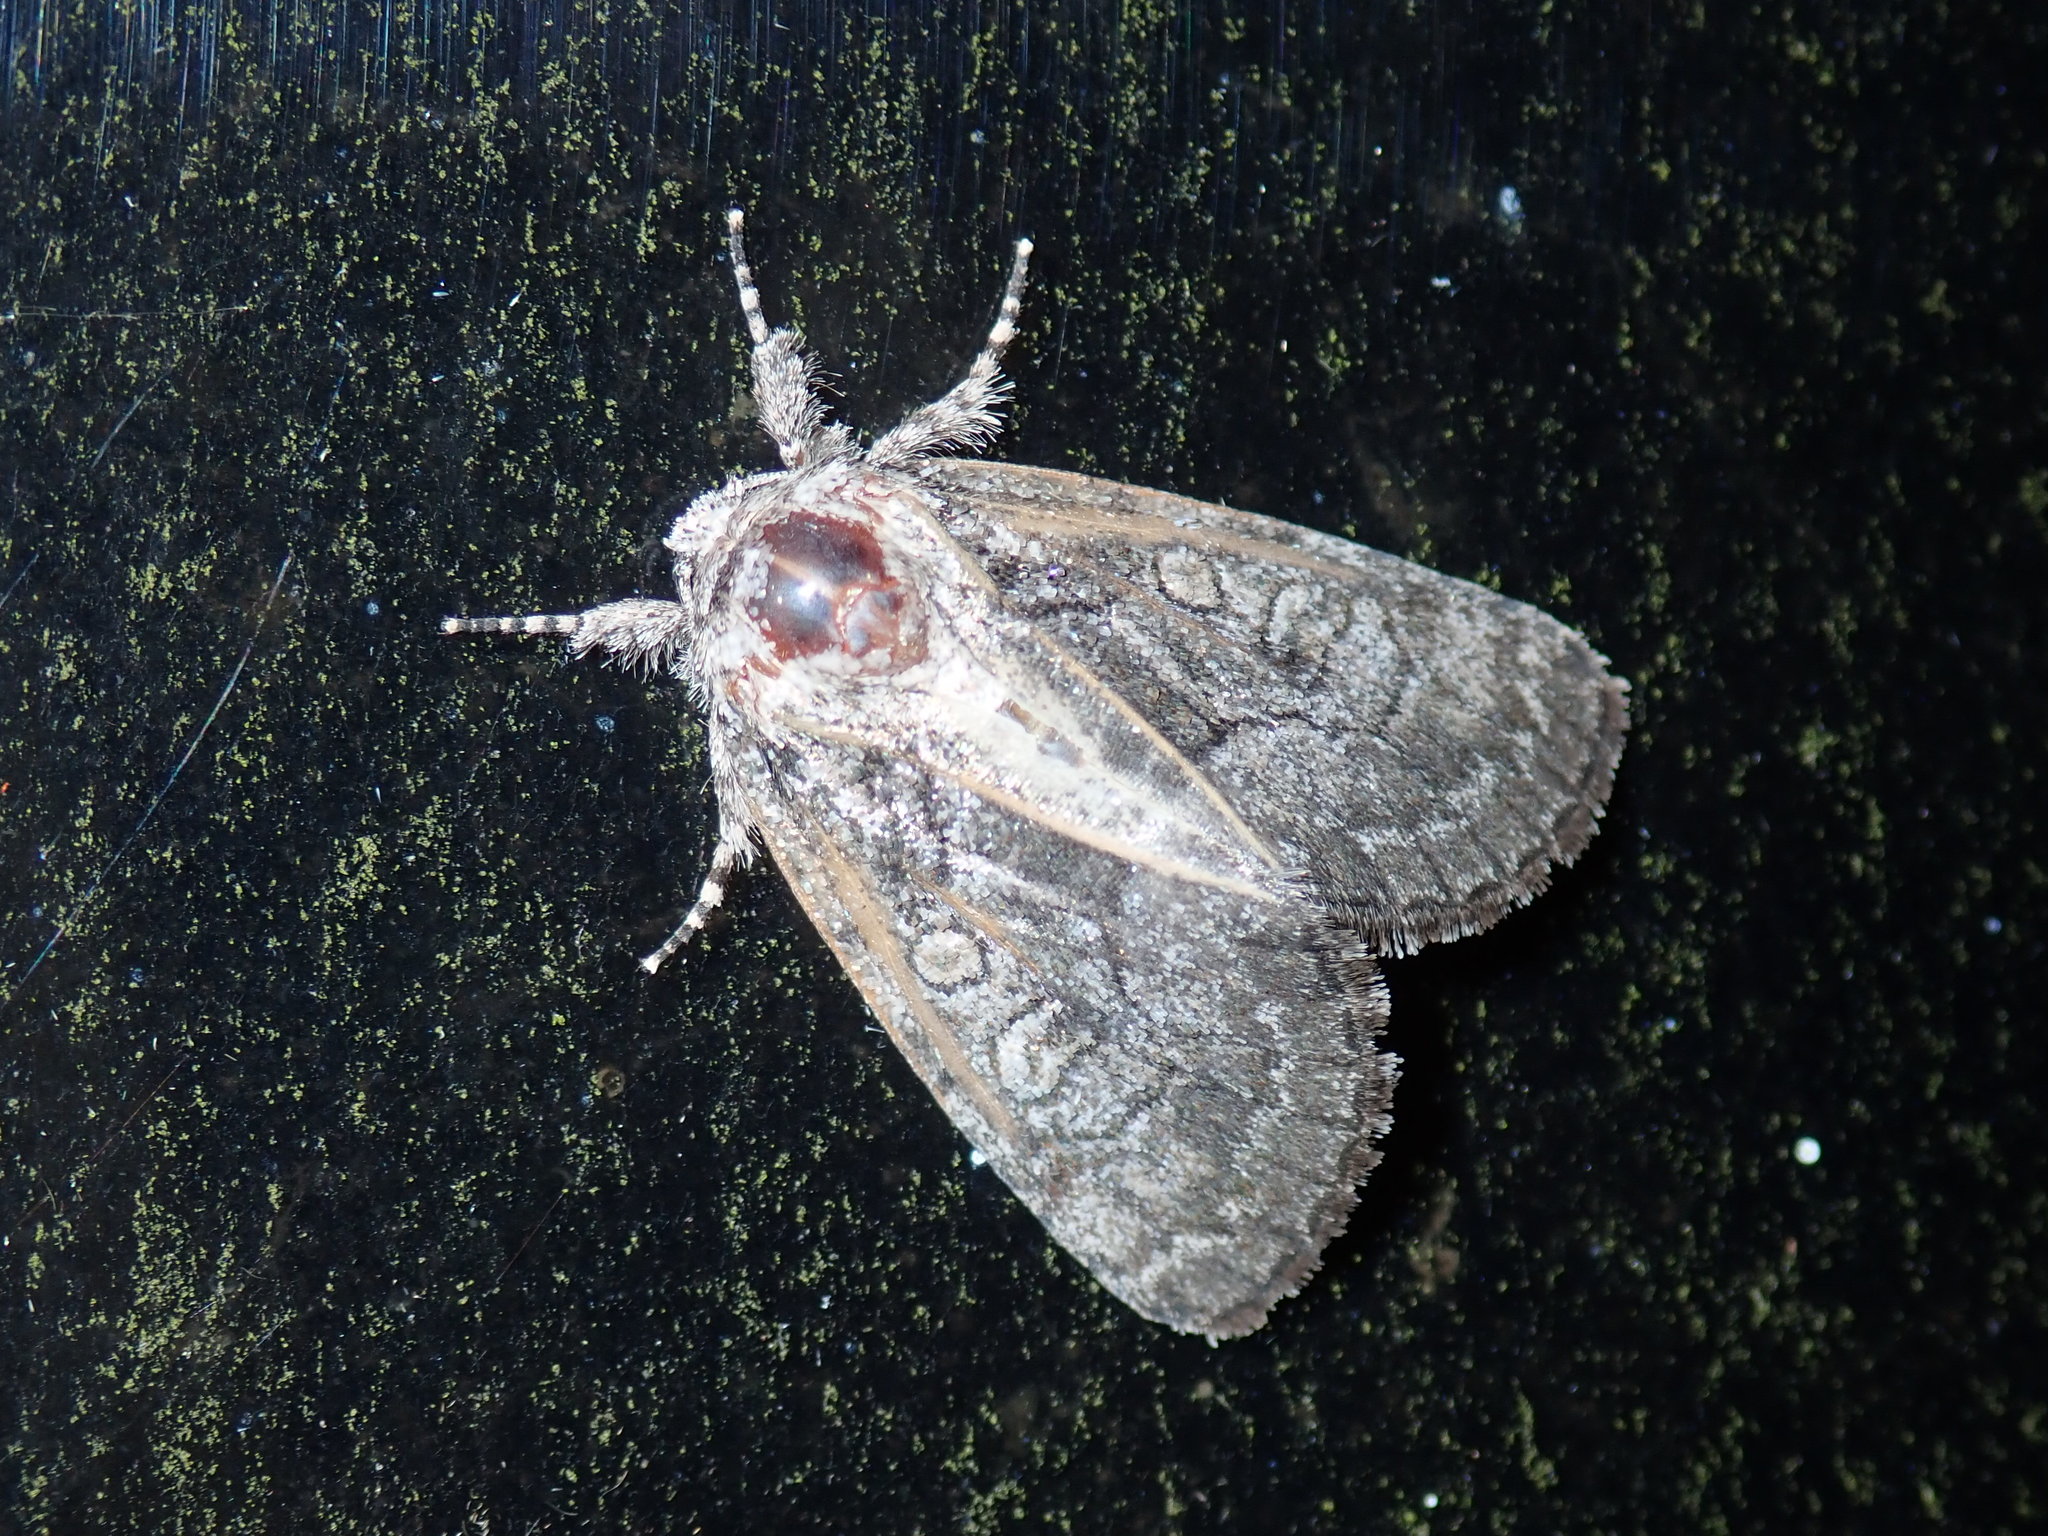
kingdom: Animalia
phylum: Arthropoda
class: Insecta
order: Lepidoptera
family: Noctuidae
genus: Raphia
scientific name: Raphia frater
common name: Brother
